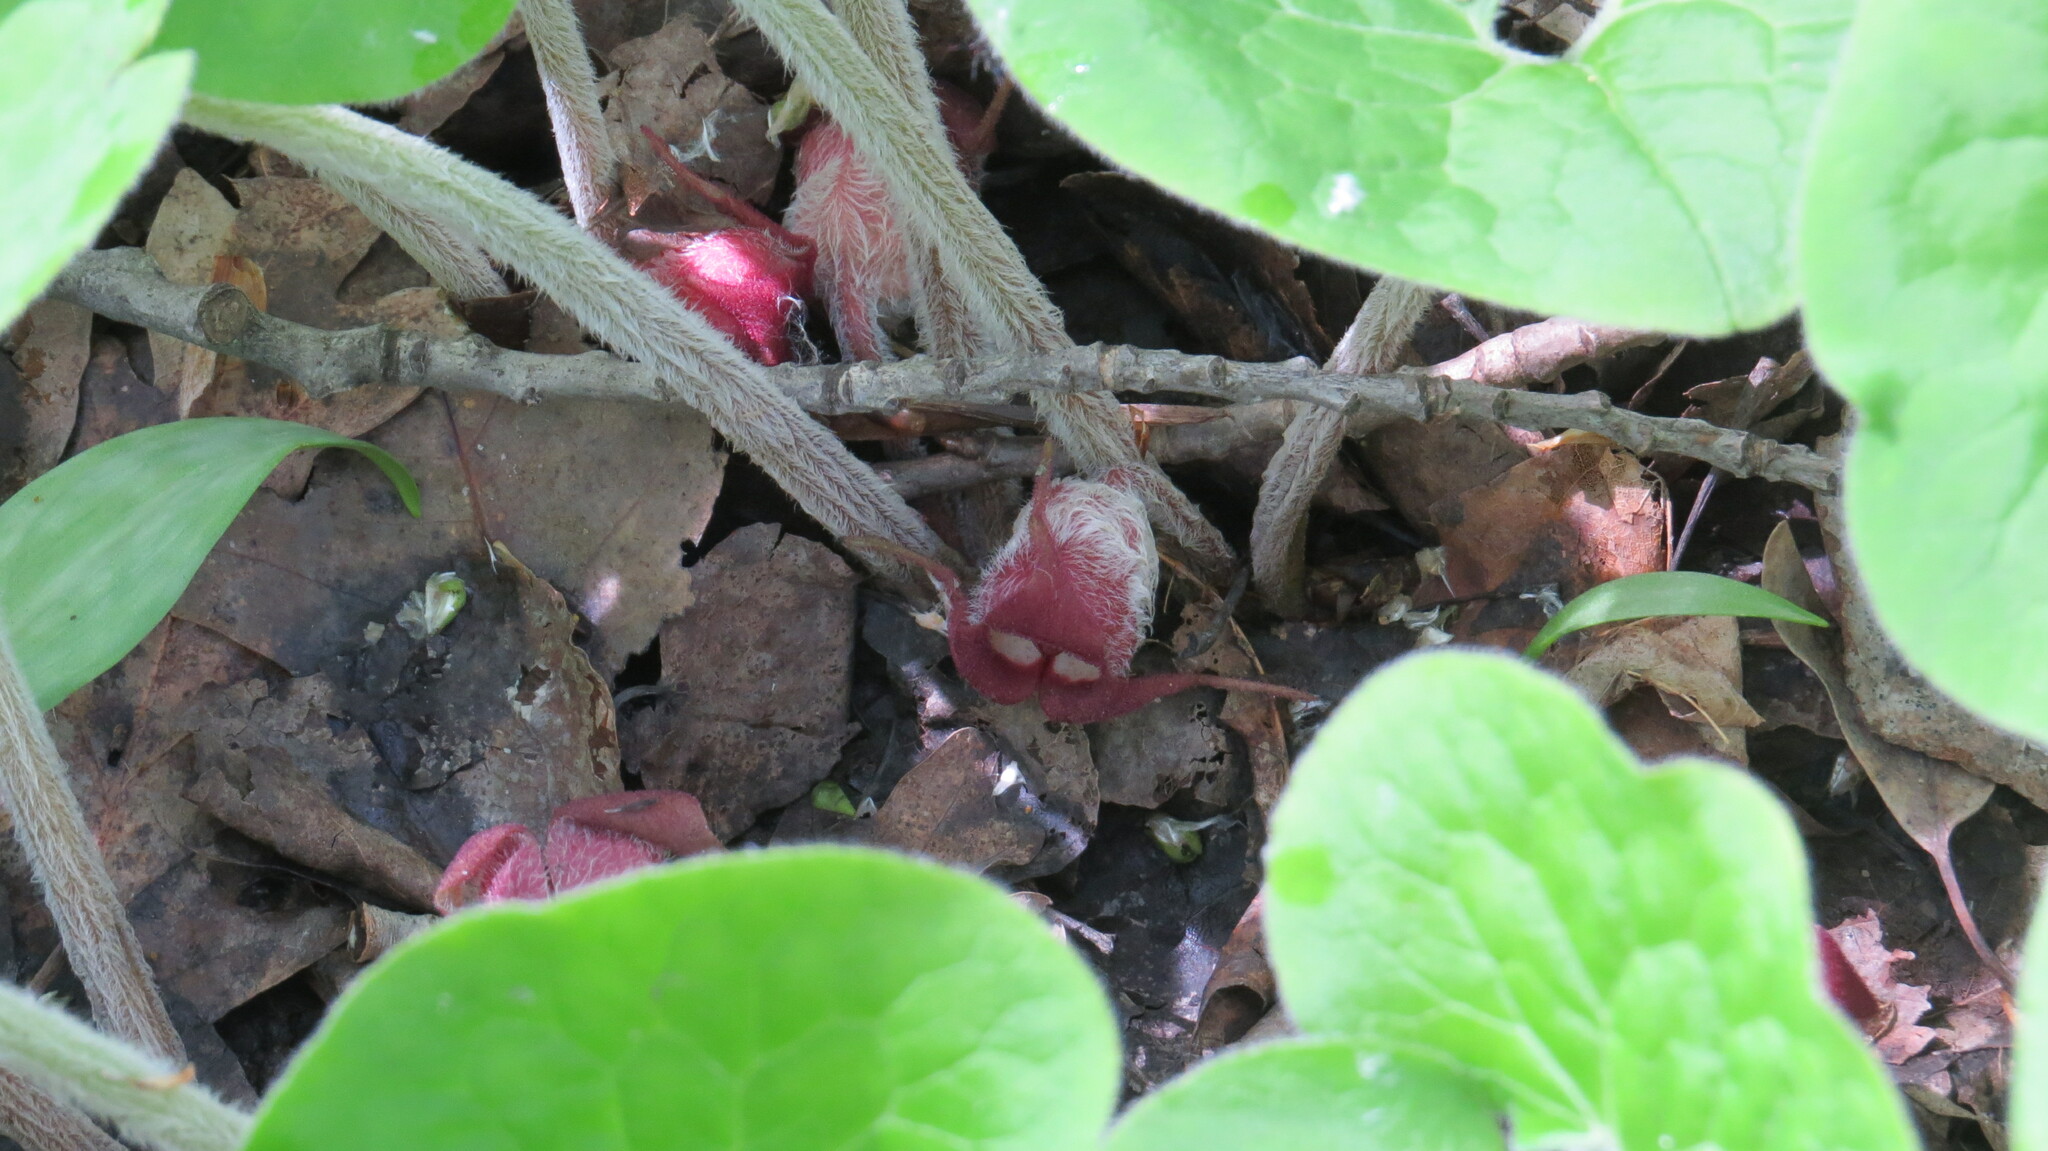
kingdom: Plantae
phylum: Tracheophyta
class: Magnoliopsida
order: Piperales
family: Aristolochiaceae
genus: Asarum
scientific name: Asarum canadense
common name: Wild ginger
